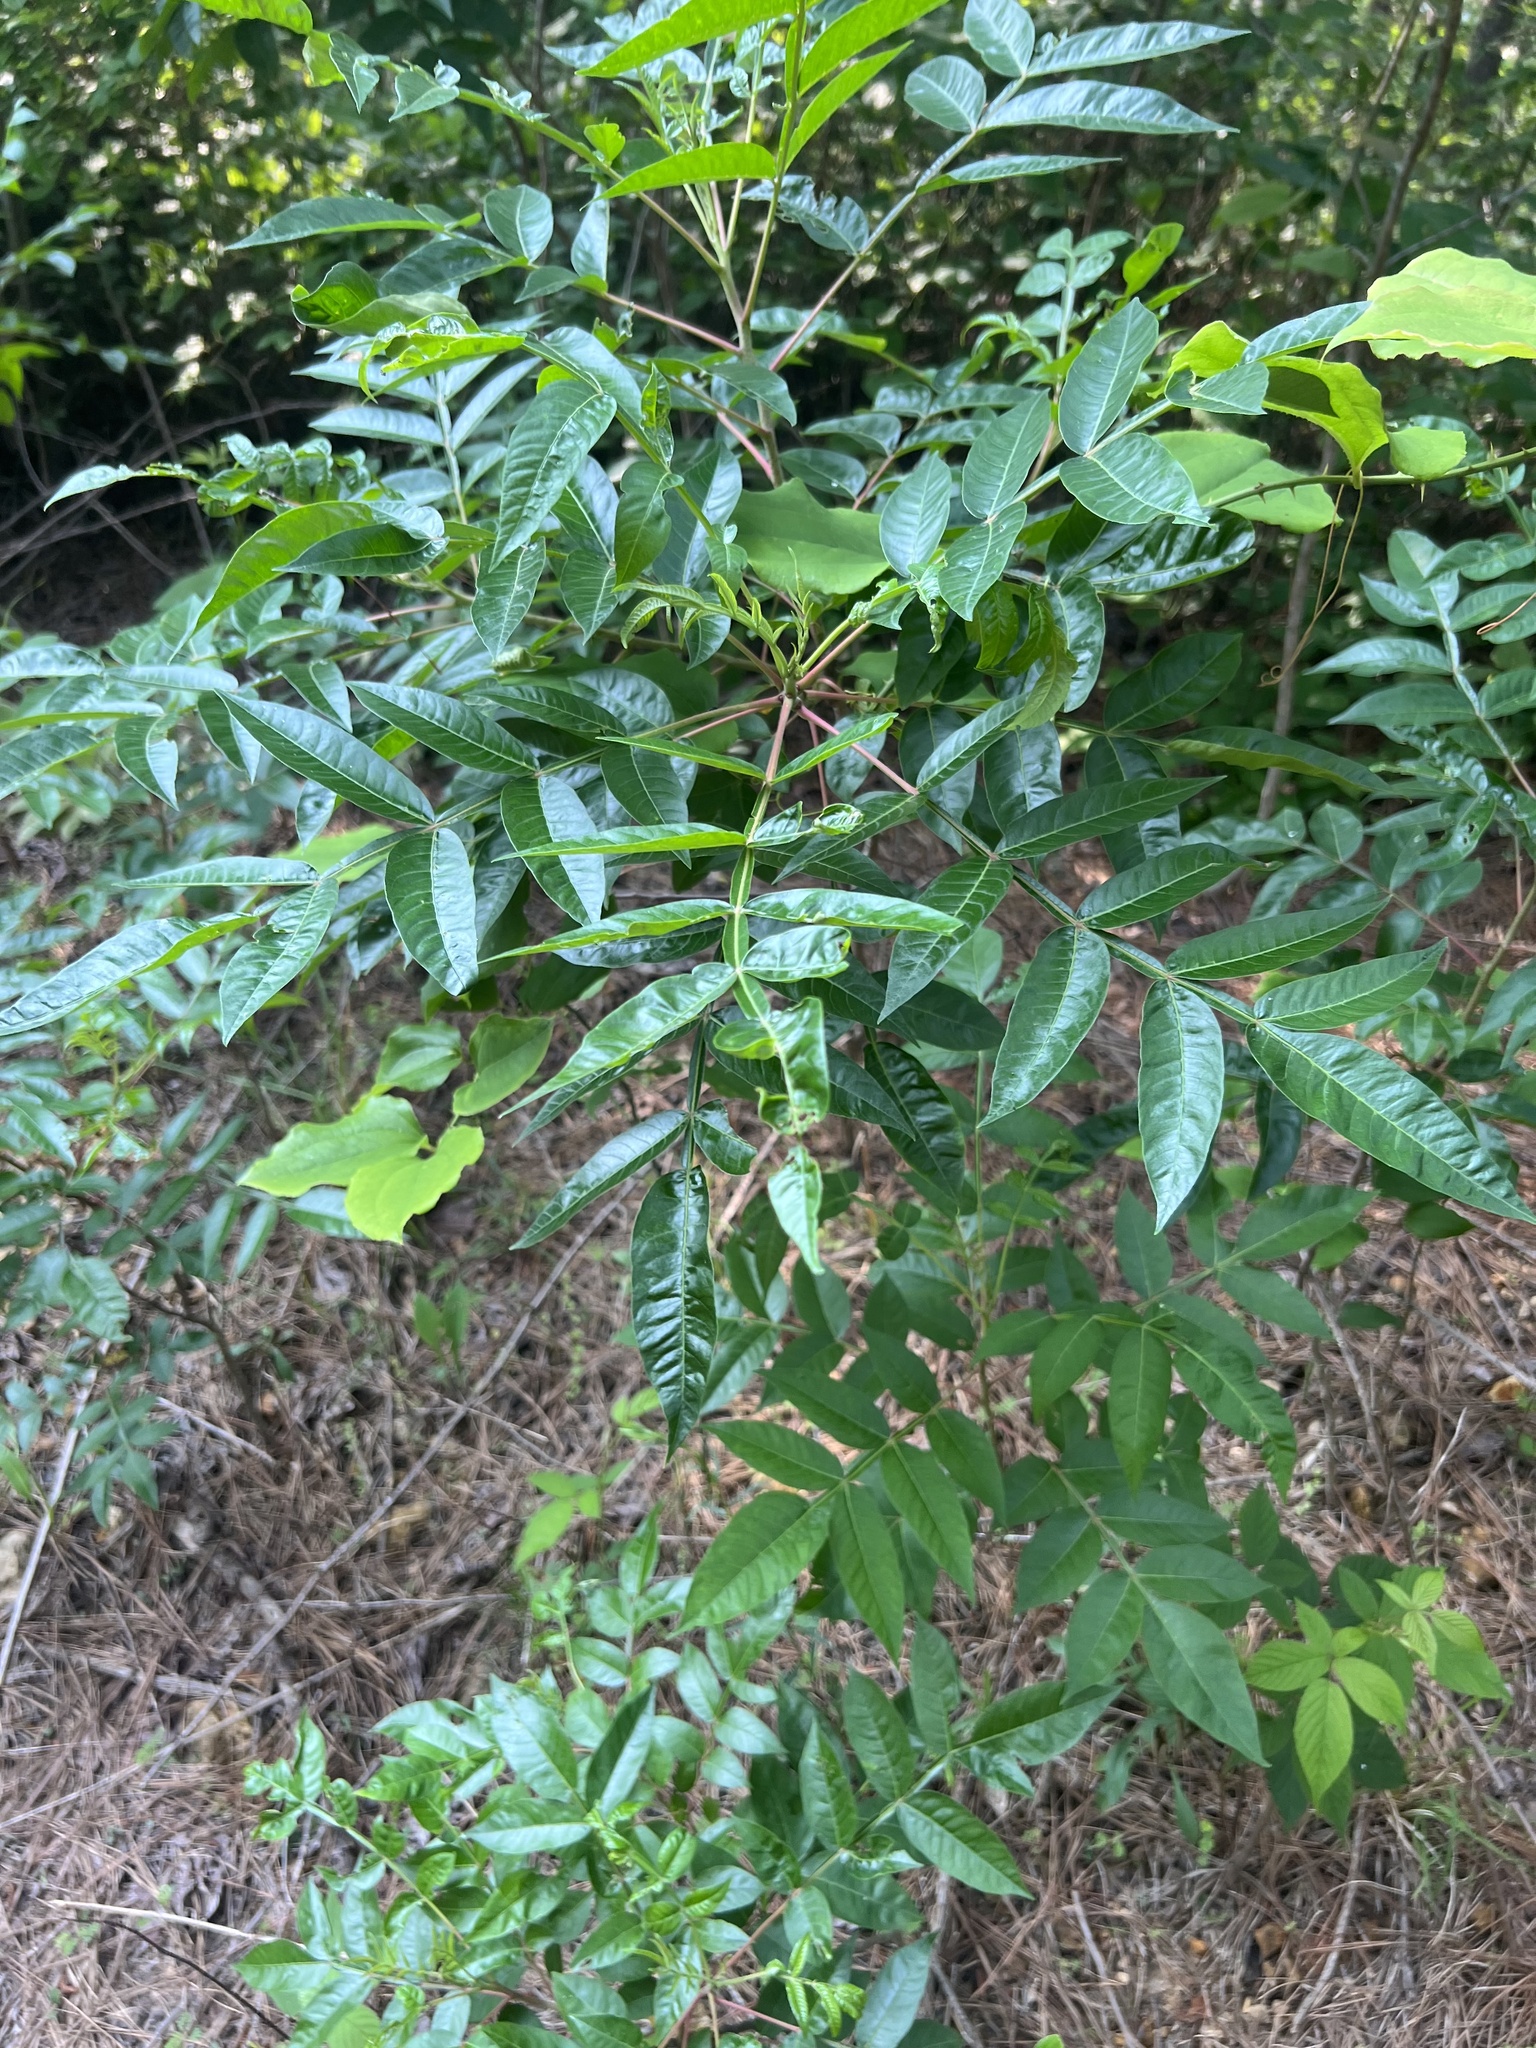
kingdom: Plantae
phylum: Tracheophyta
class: Magnoliopsida
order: Sapindales
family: Anacardiaceae
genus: Rhus
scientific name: Rhus copallina
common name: Shining sumac
